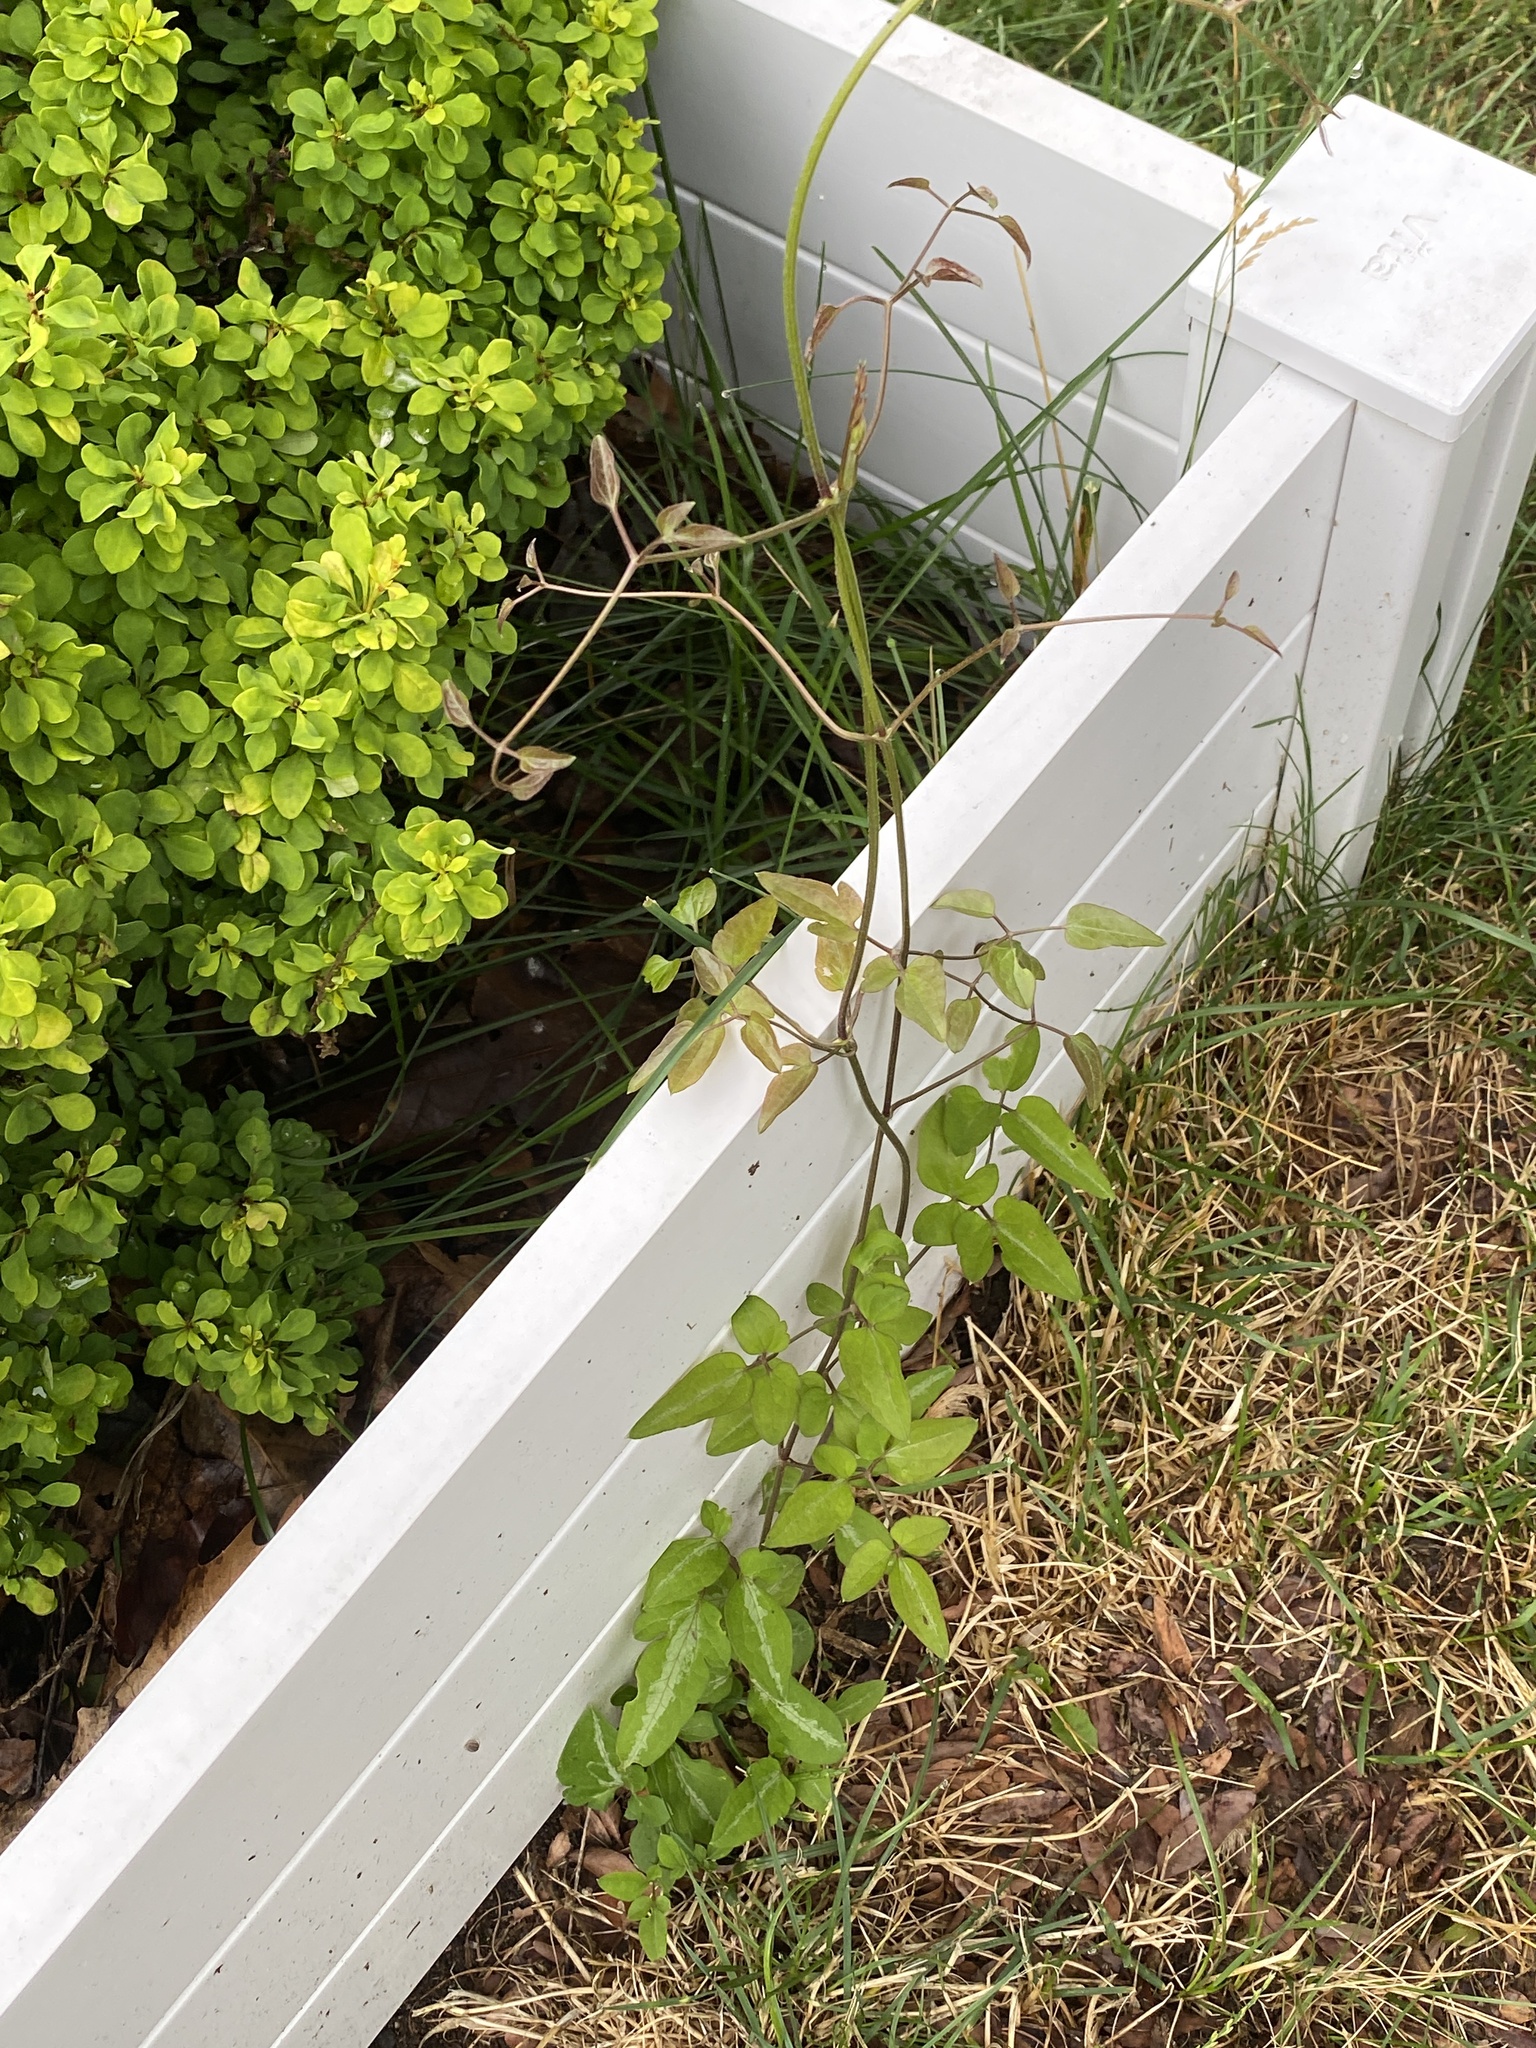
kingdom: Plantae
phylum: Tracheophyta
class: Magnoliopsida
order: Ranunculales
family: Ranunculaceae
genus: Clematis
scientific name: Clematis terniflora
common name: Sweet autumn clematis
